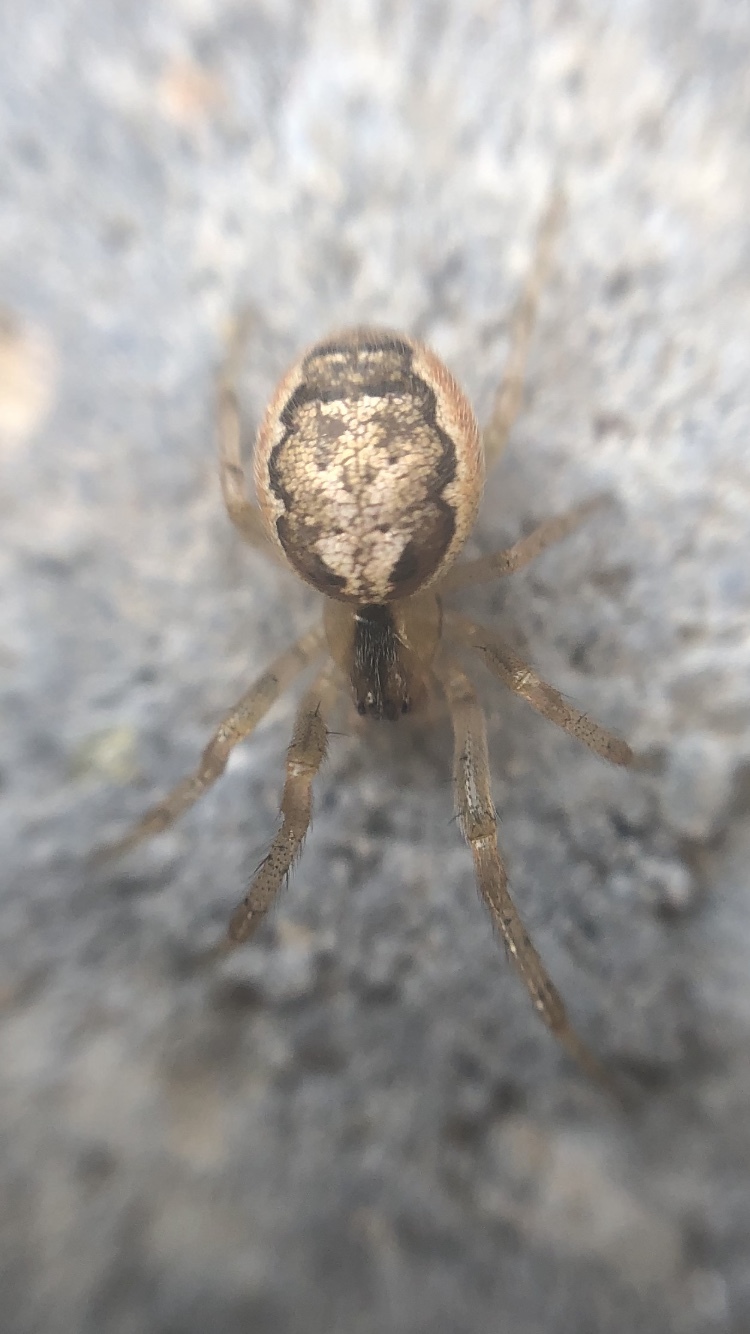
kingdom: Animalia
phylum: Arthropoda
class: Arachnida
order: Araneae
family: Araneidae
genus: Zygiella
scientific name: Zygiella x-notata
